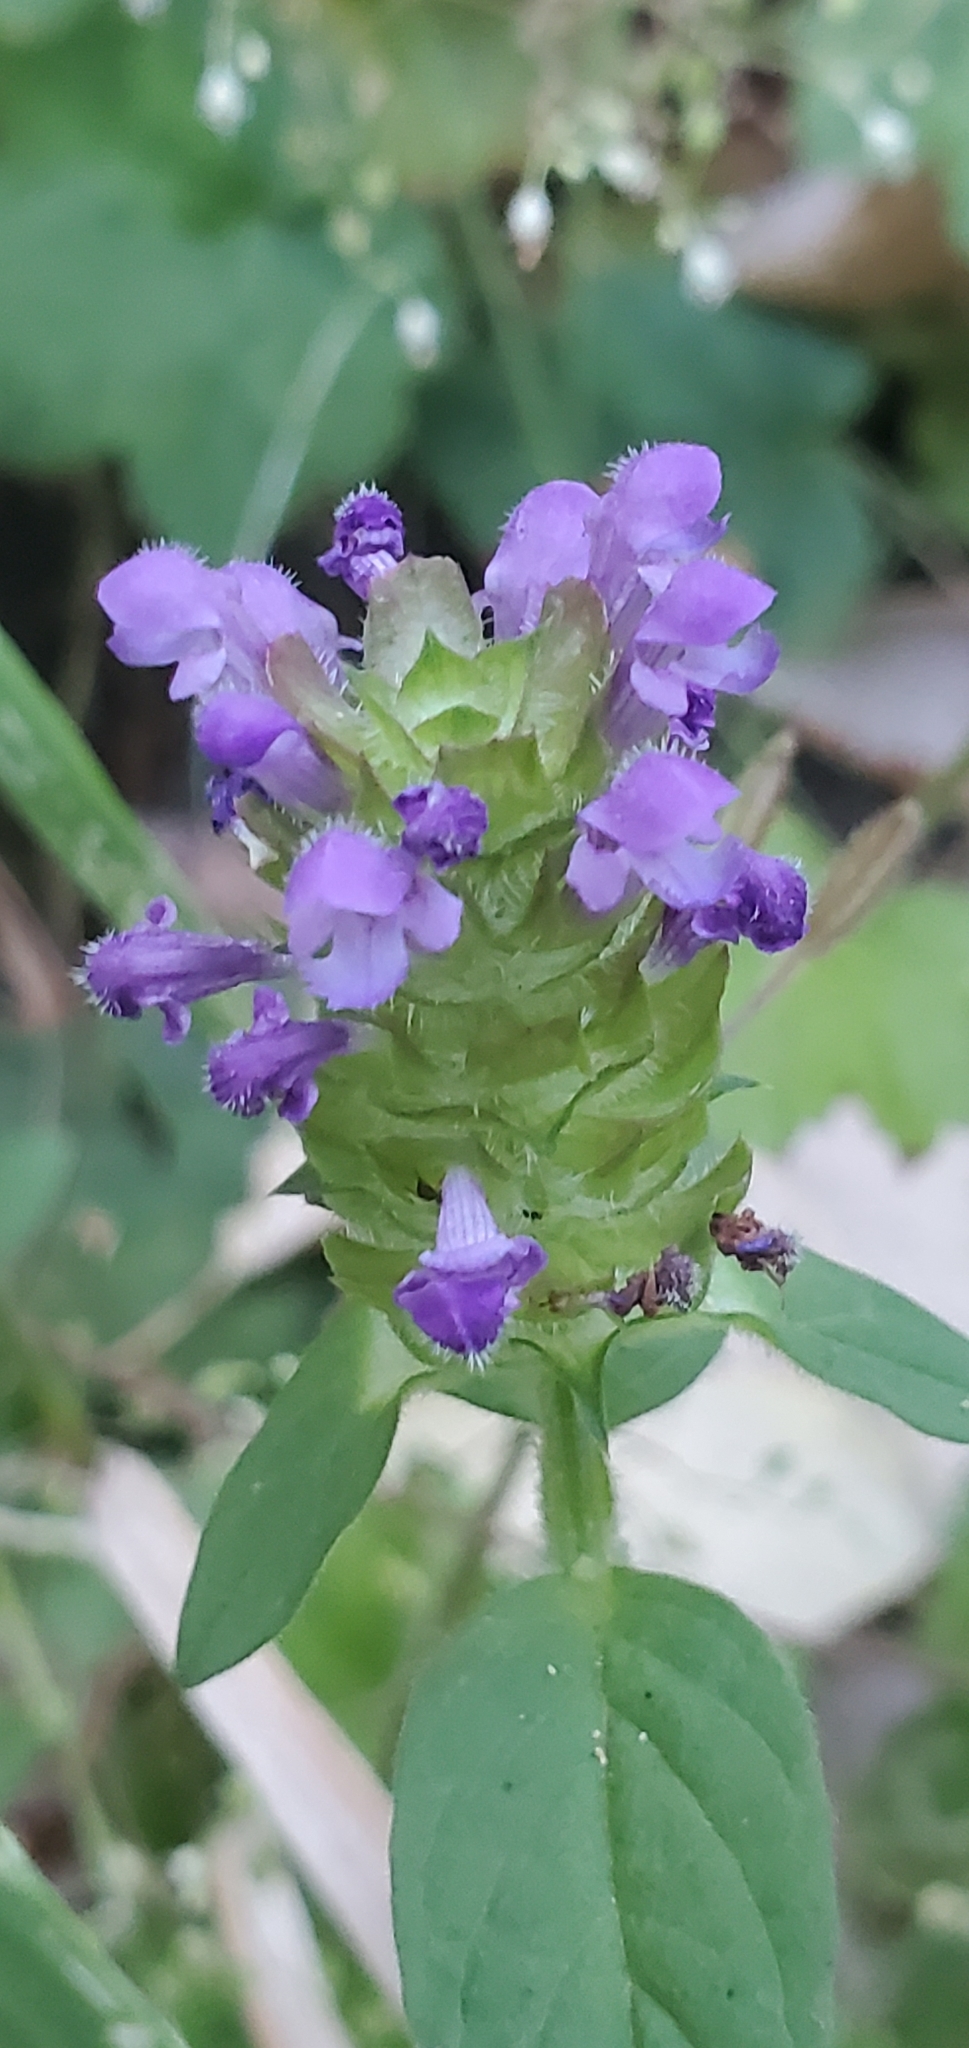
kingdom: Plantae
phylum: Tracheophyta
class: Magnoliopsida
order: Lamiales
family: Lamiaceae
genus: Prunella
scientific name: Prunella vulgaris
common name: Heal-all
